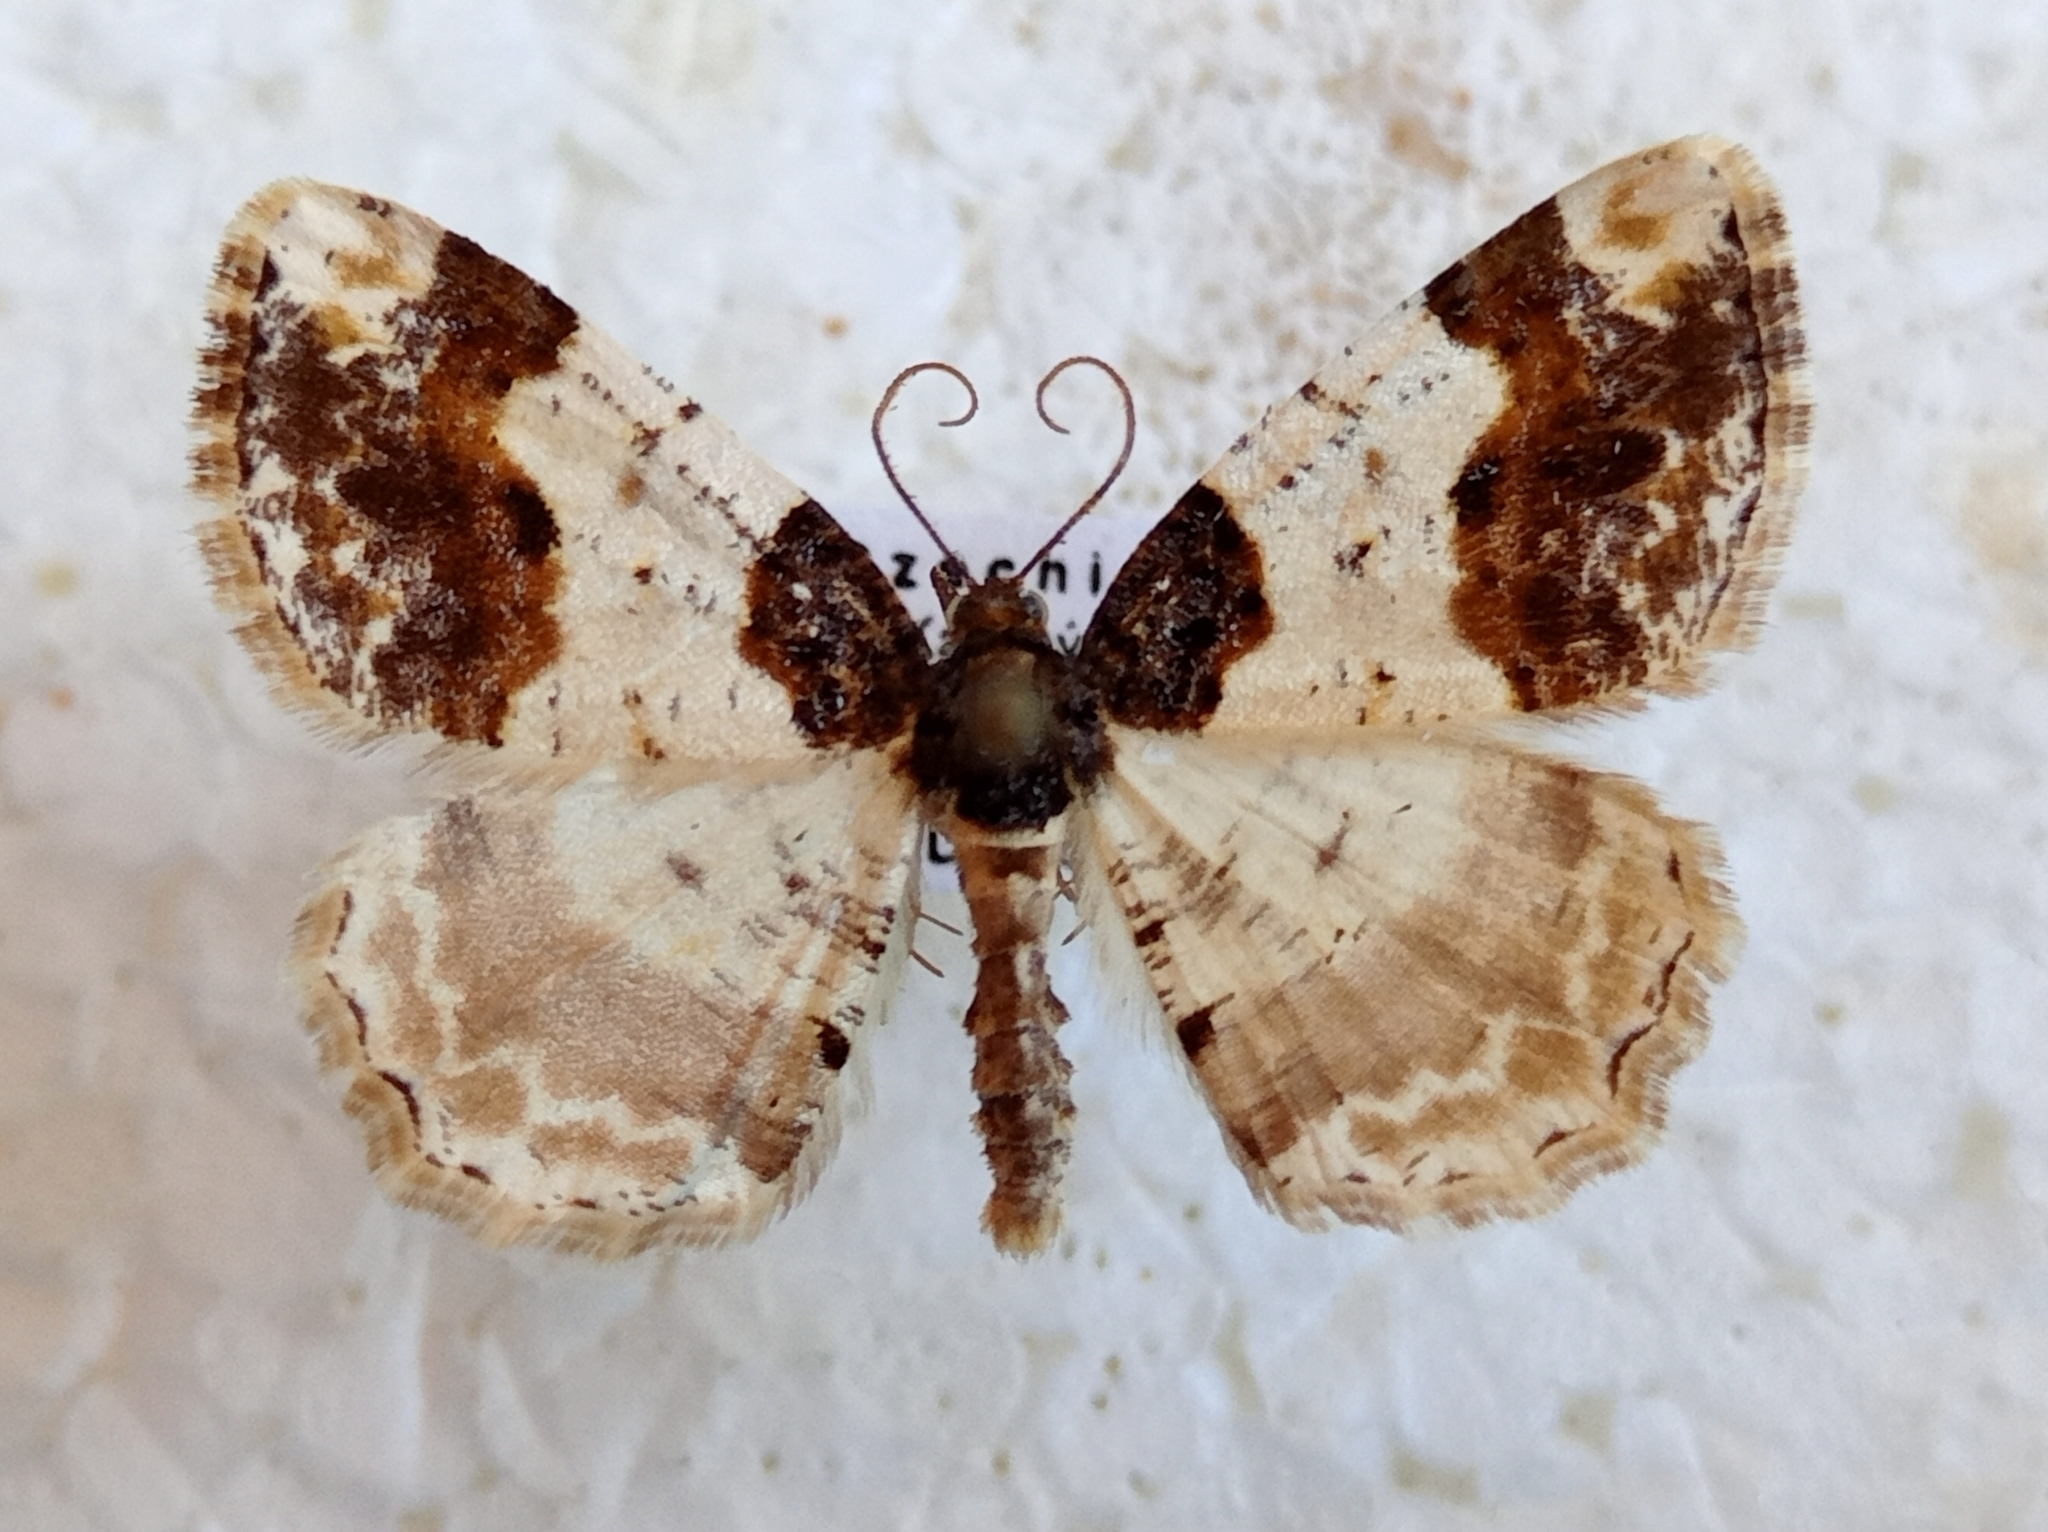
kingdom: Animalia
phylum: Arthropoda
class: Insecta
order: Lepidoptera
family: Geometridae
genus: Ligdia
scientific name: Ligdia adustata
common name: Scorched carpet
